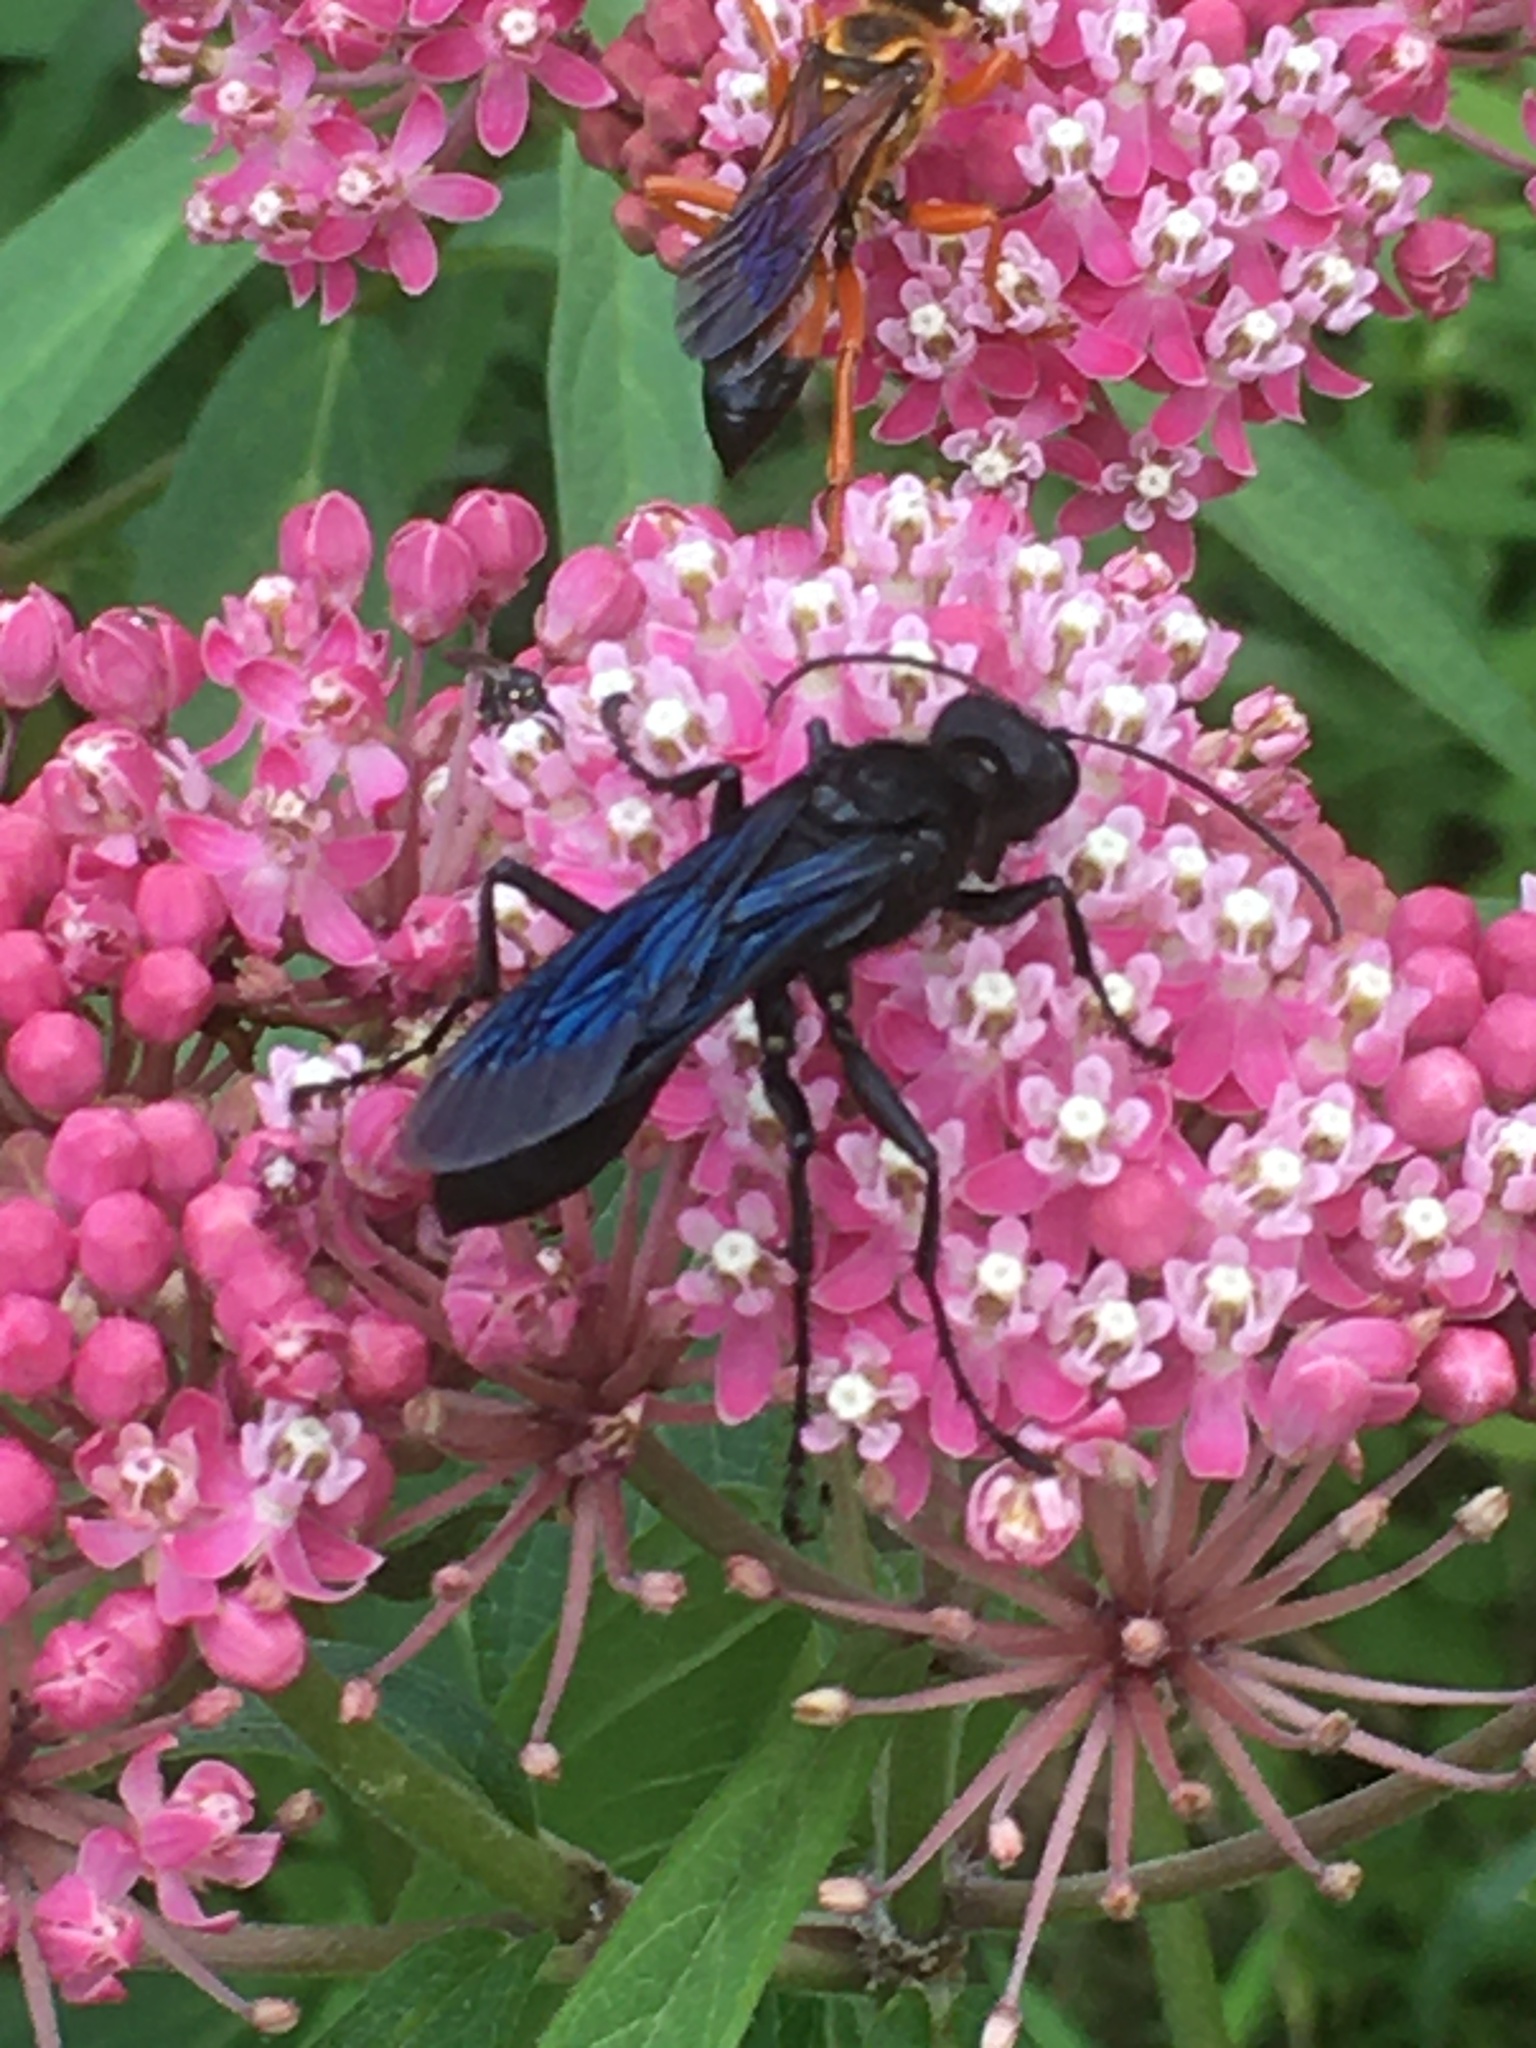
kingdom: Animalia
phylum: Arthropoda
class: Insecta
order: Hymenoptera
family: Sphecidae
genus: Sphex
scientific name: Sphex pensylvanicus
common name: Great black digger wasp
